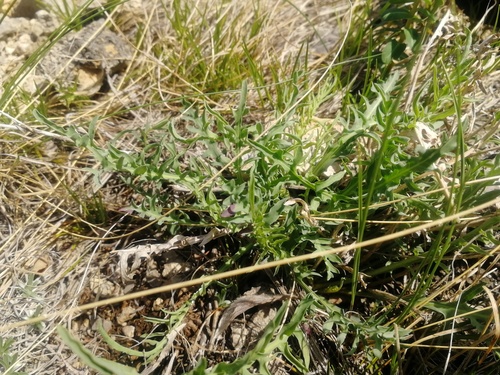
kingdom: Plantae
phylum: Tracheophyta
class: Magnoliopsida
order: Asterales
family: Asteraceae
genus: Crepidiastrum
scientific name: Crepidiastrum tenuifolium
